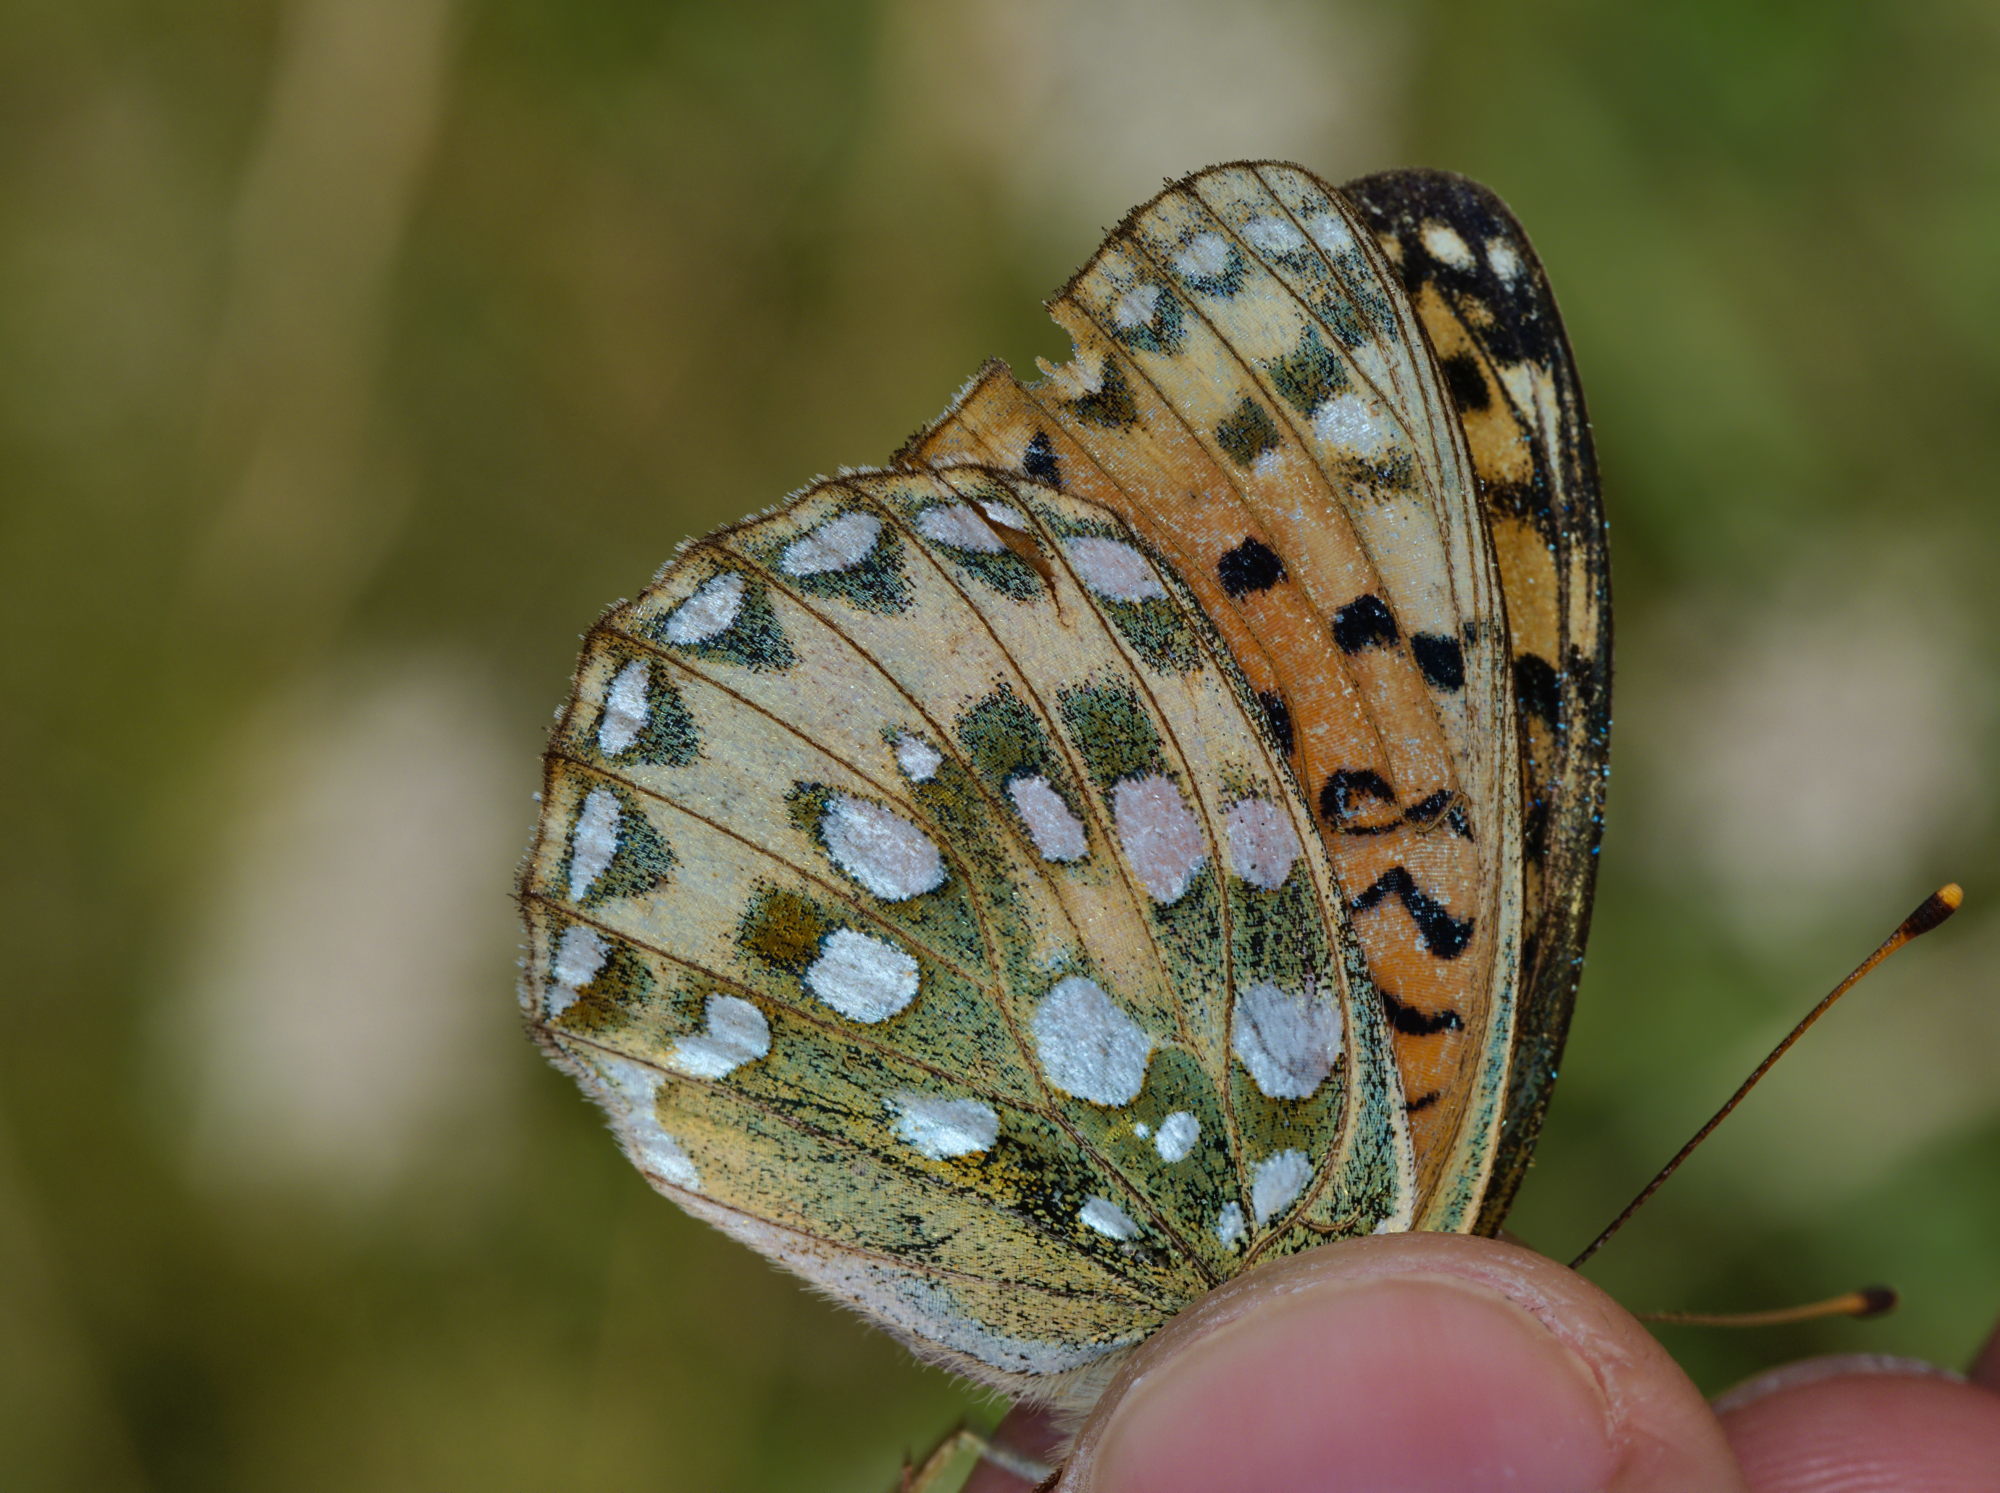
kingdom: Animalia
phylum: Arthropoda
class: Insecta
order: Lepidoptera
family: Nymphalidae
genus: Speyeria
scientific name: Speyeria aglaja
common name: Dark green fritillary
